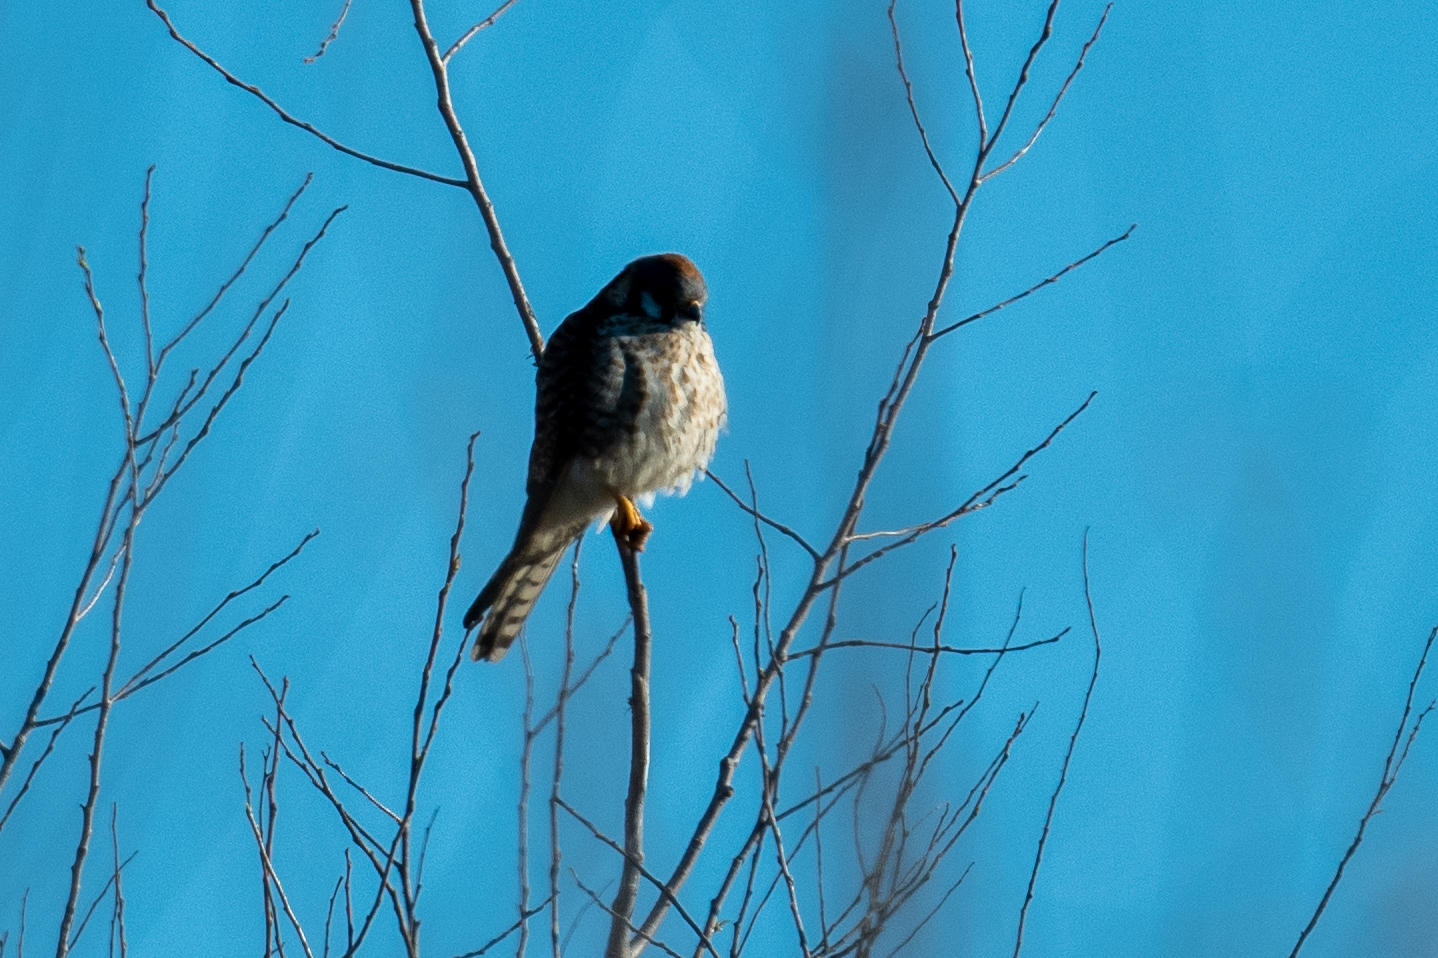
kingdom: Animalia
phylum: Chordata
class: Aves
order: Falconiformes
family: Falconidae
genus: Falco
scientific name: Falco sparverius
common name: American kestrel
